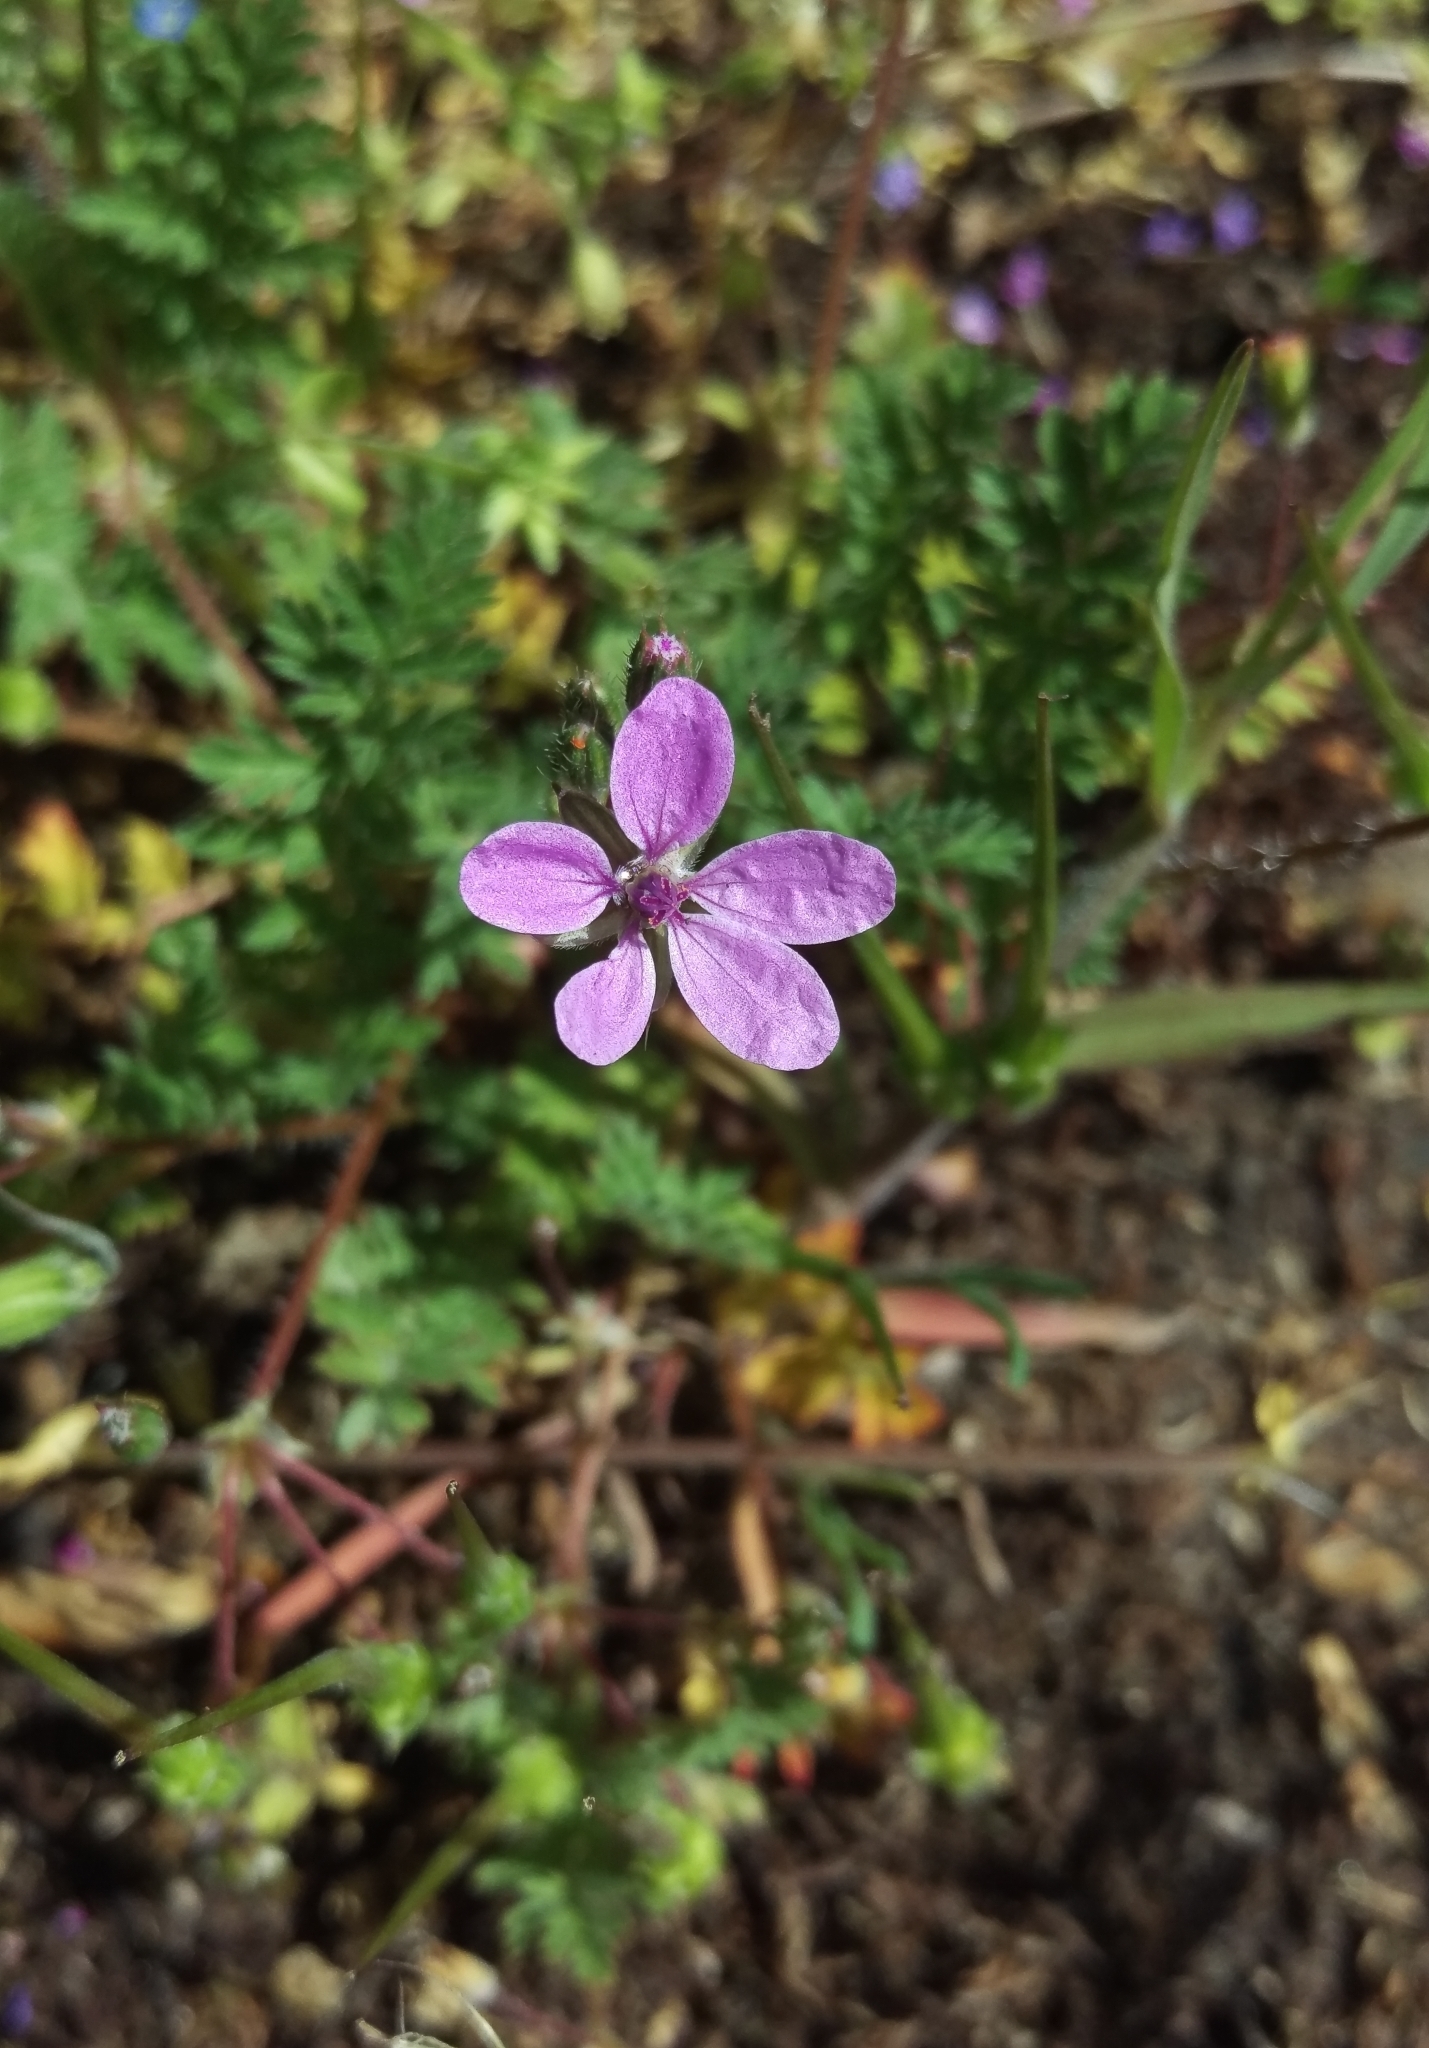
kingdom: Plantae
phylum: Tracheophyta
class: Magnoliopsida
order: Geraniales
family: Geraniaceae
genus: Erodium
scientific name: Erodium cicutarium
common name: Common stork's-bill
